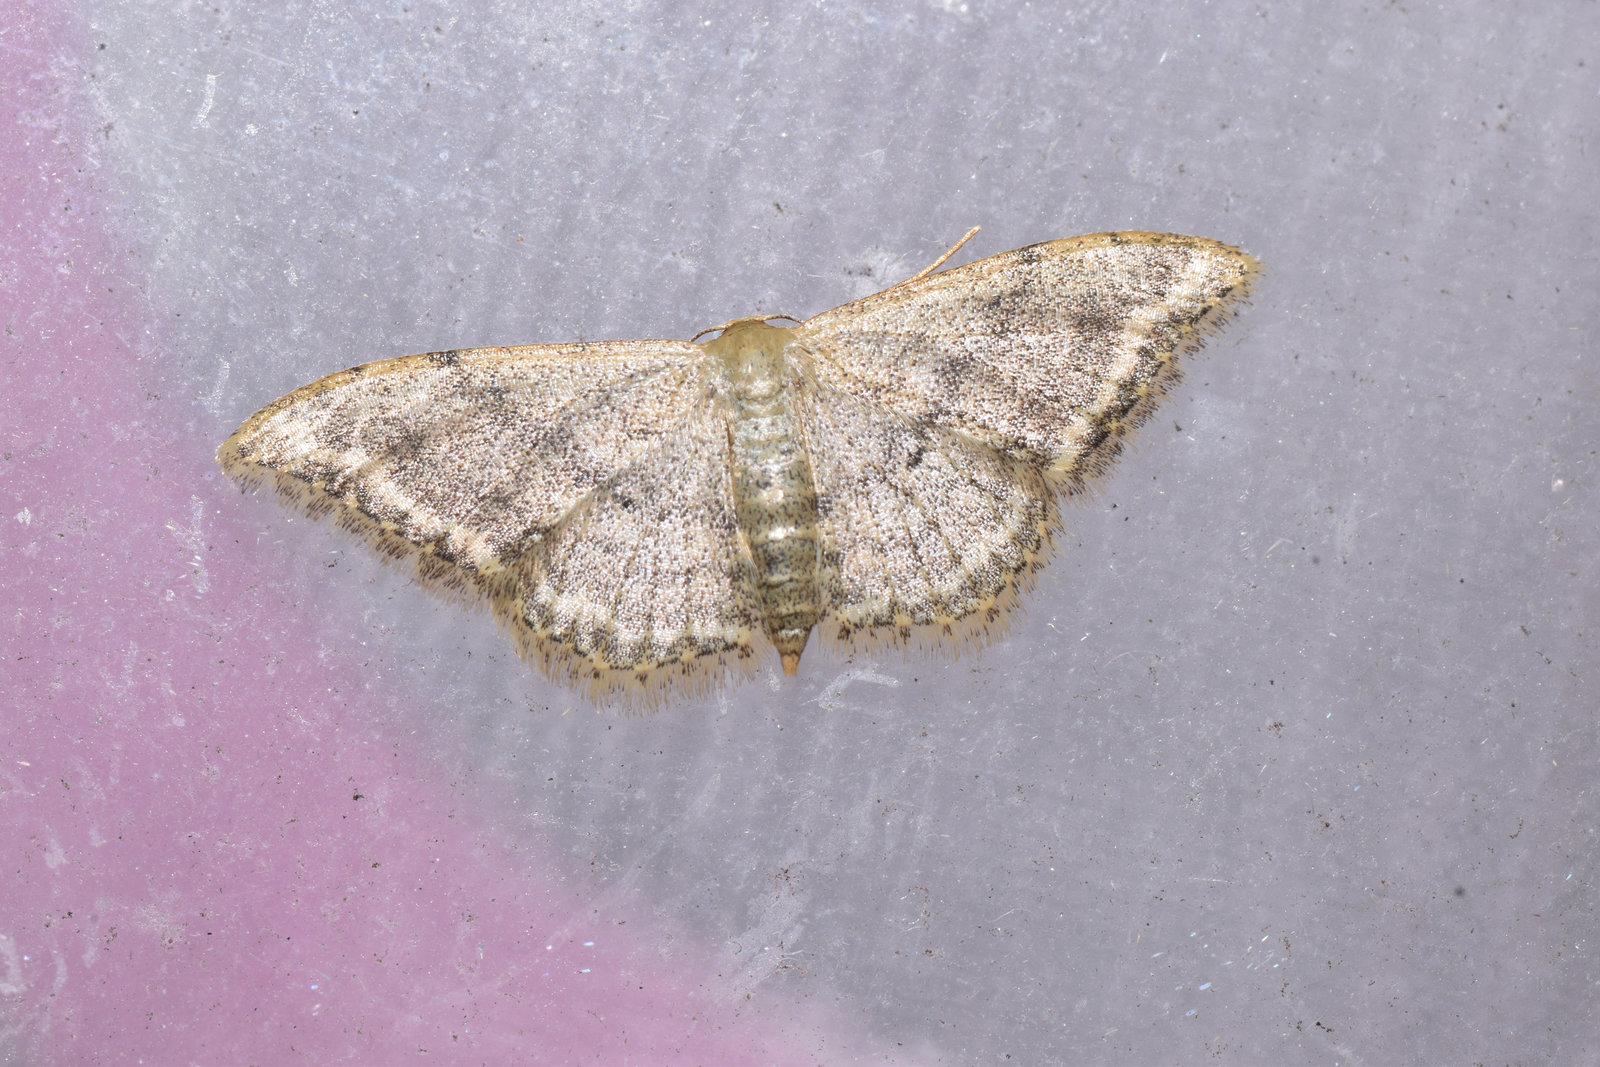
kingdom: Animalia
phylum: Arthropoda
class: Insecta
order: Lepidoptera
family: Geometridae
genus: Idaea
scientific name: Idaea falcipennis
